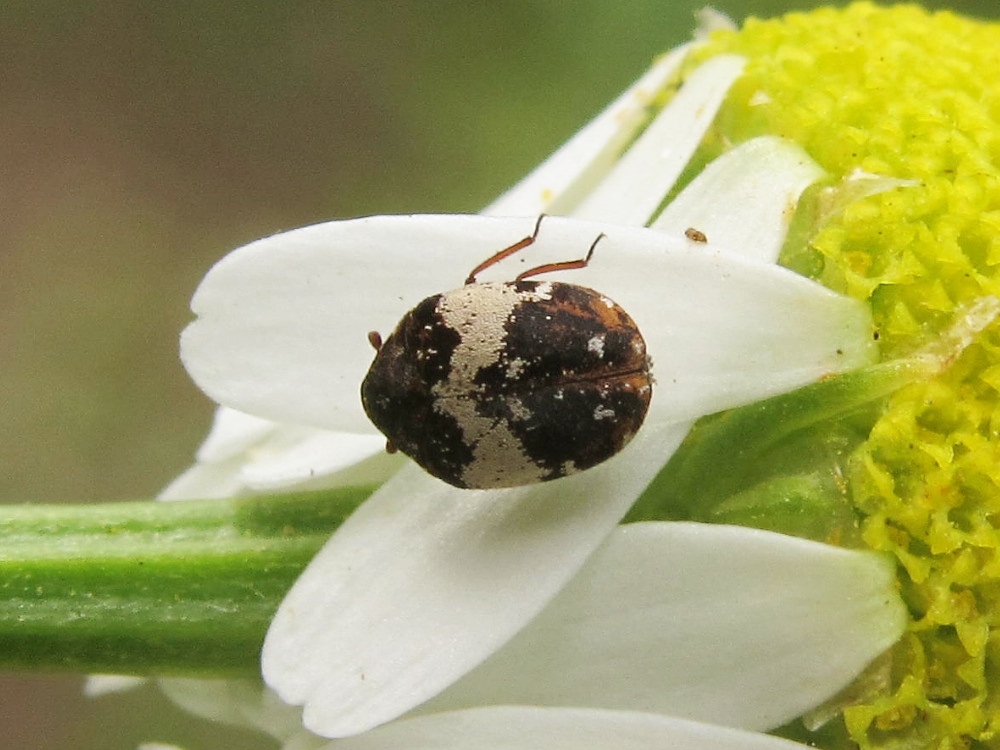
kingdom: Animalia
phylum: Arthropoda
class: Insecta
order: Coleoptera
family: Dermestidae
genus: Anthrenus
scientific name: Anthrenus isabellinus
